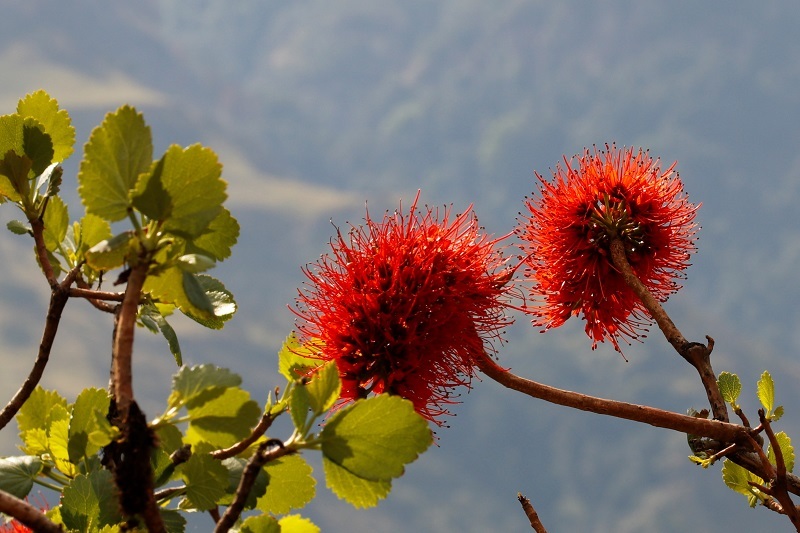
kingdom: Plantae
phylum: Tracheophyta
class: Magnoliopsida
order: Geraniales
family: Francoaceae
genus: Greyia
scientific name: Greyia sutherlandii
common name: Glossy bottlebrush
